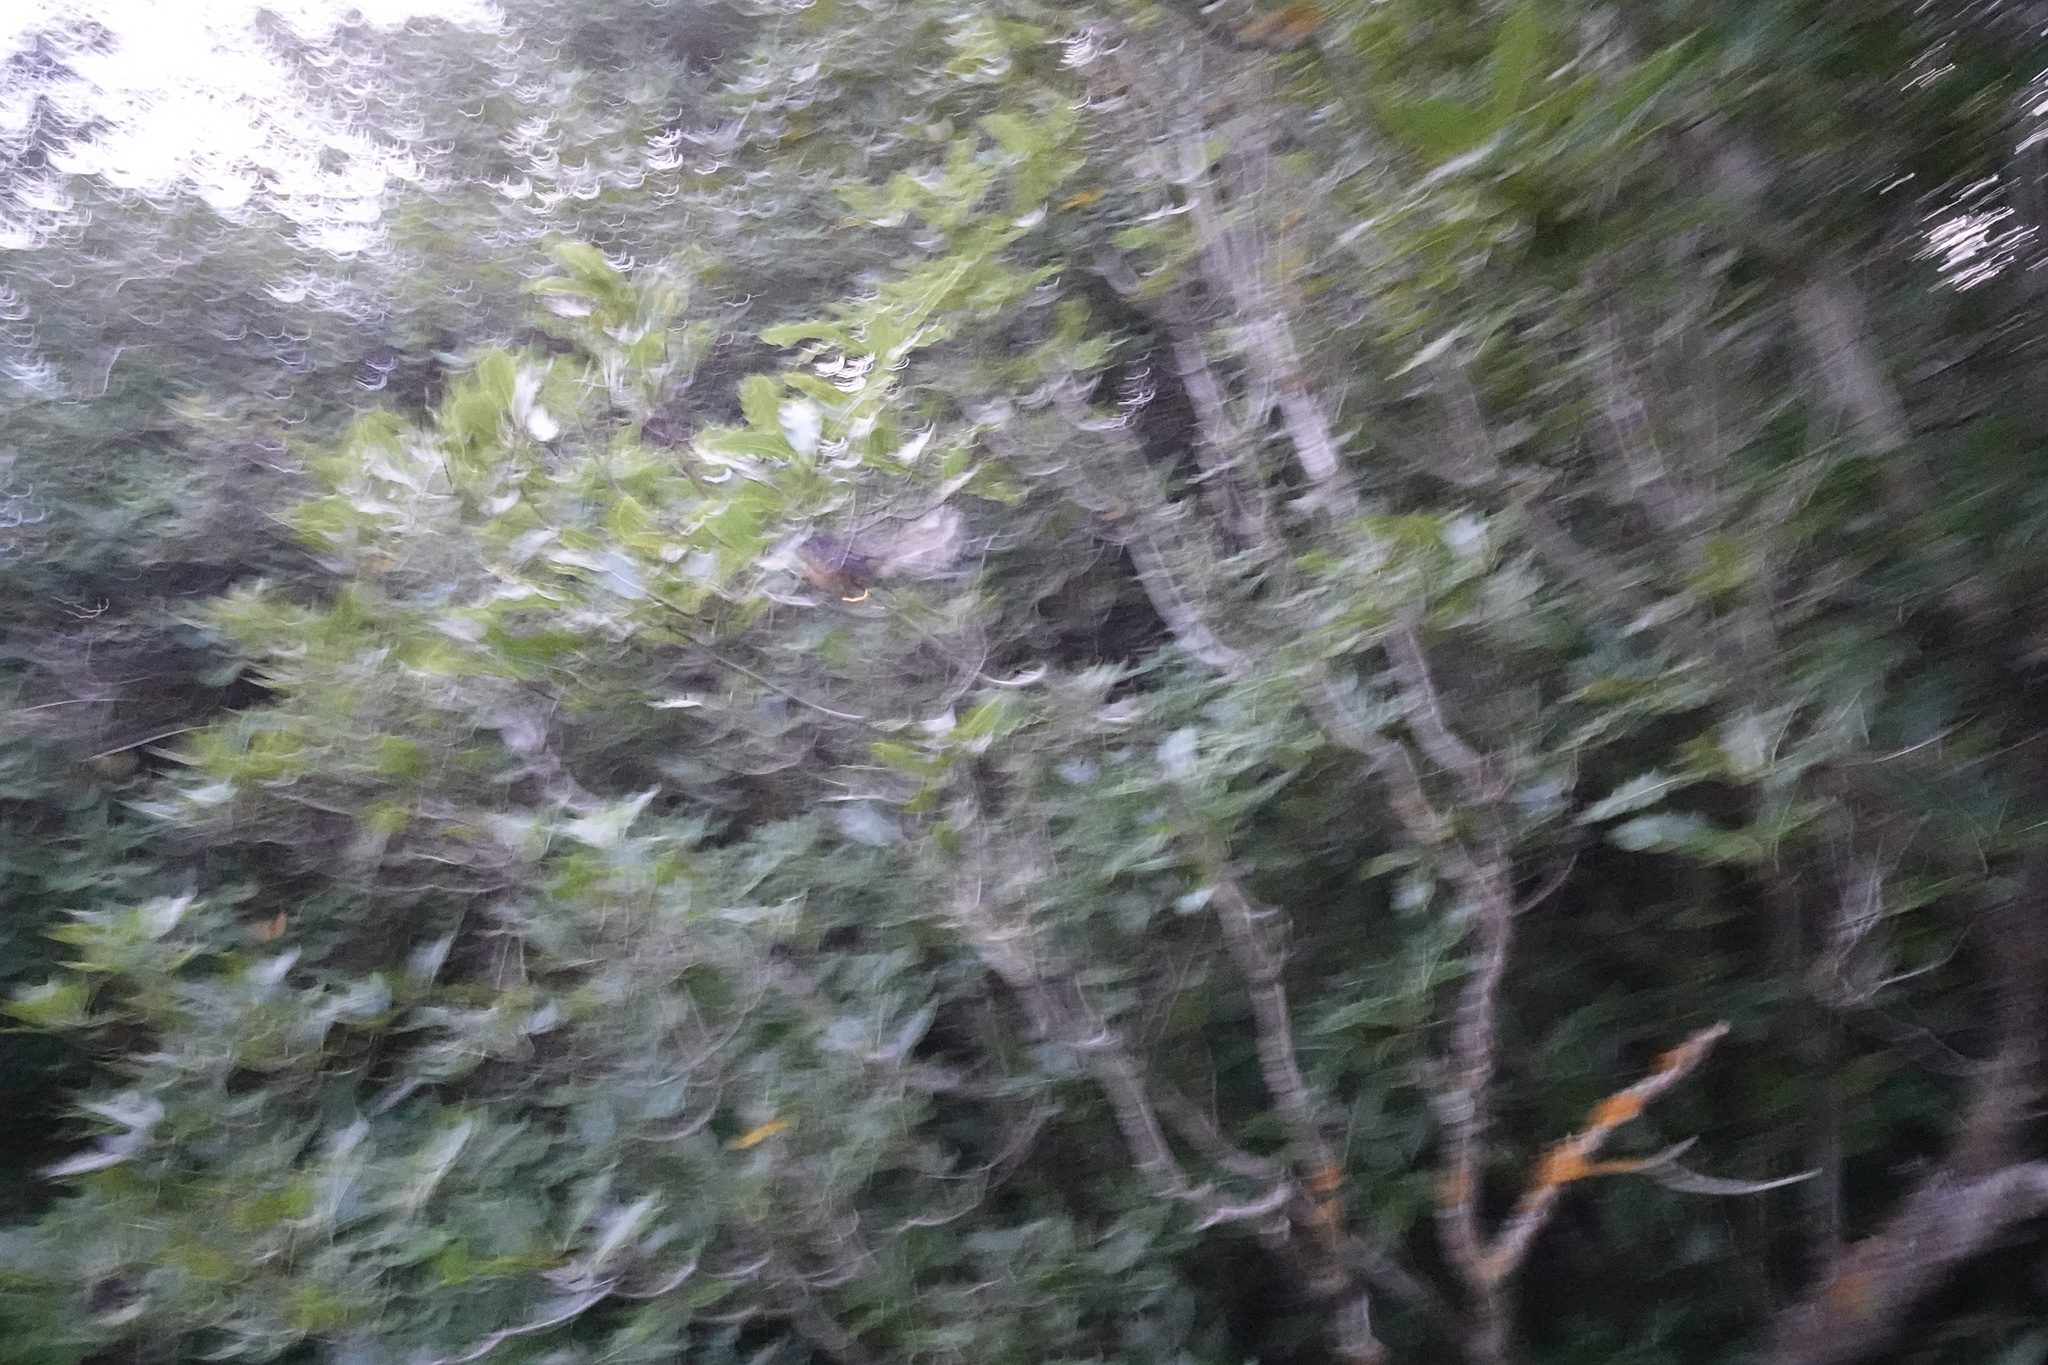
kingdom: Animalia
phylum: Chordata
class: Aves
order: Passeriformes
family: Rhipiduridae
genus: Rhipidura
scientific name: Rhipidura fuliginosa
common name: New zealand fantail
